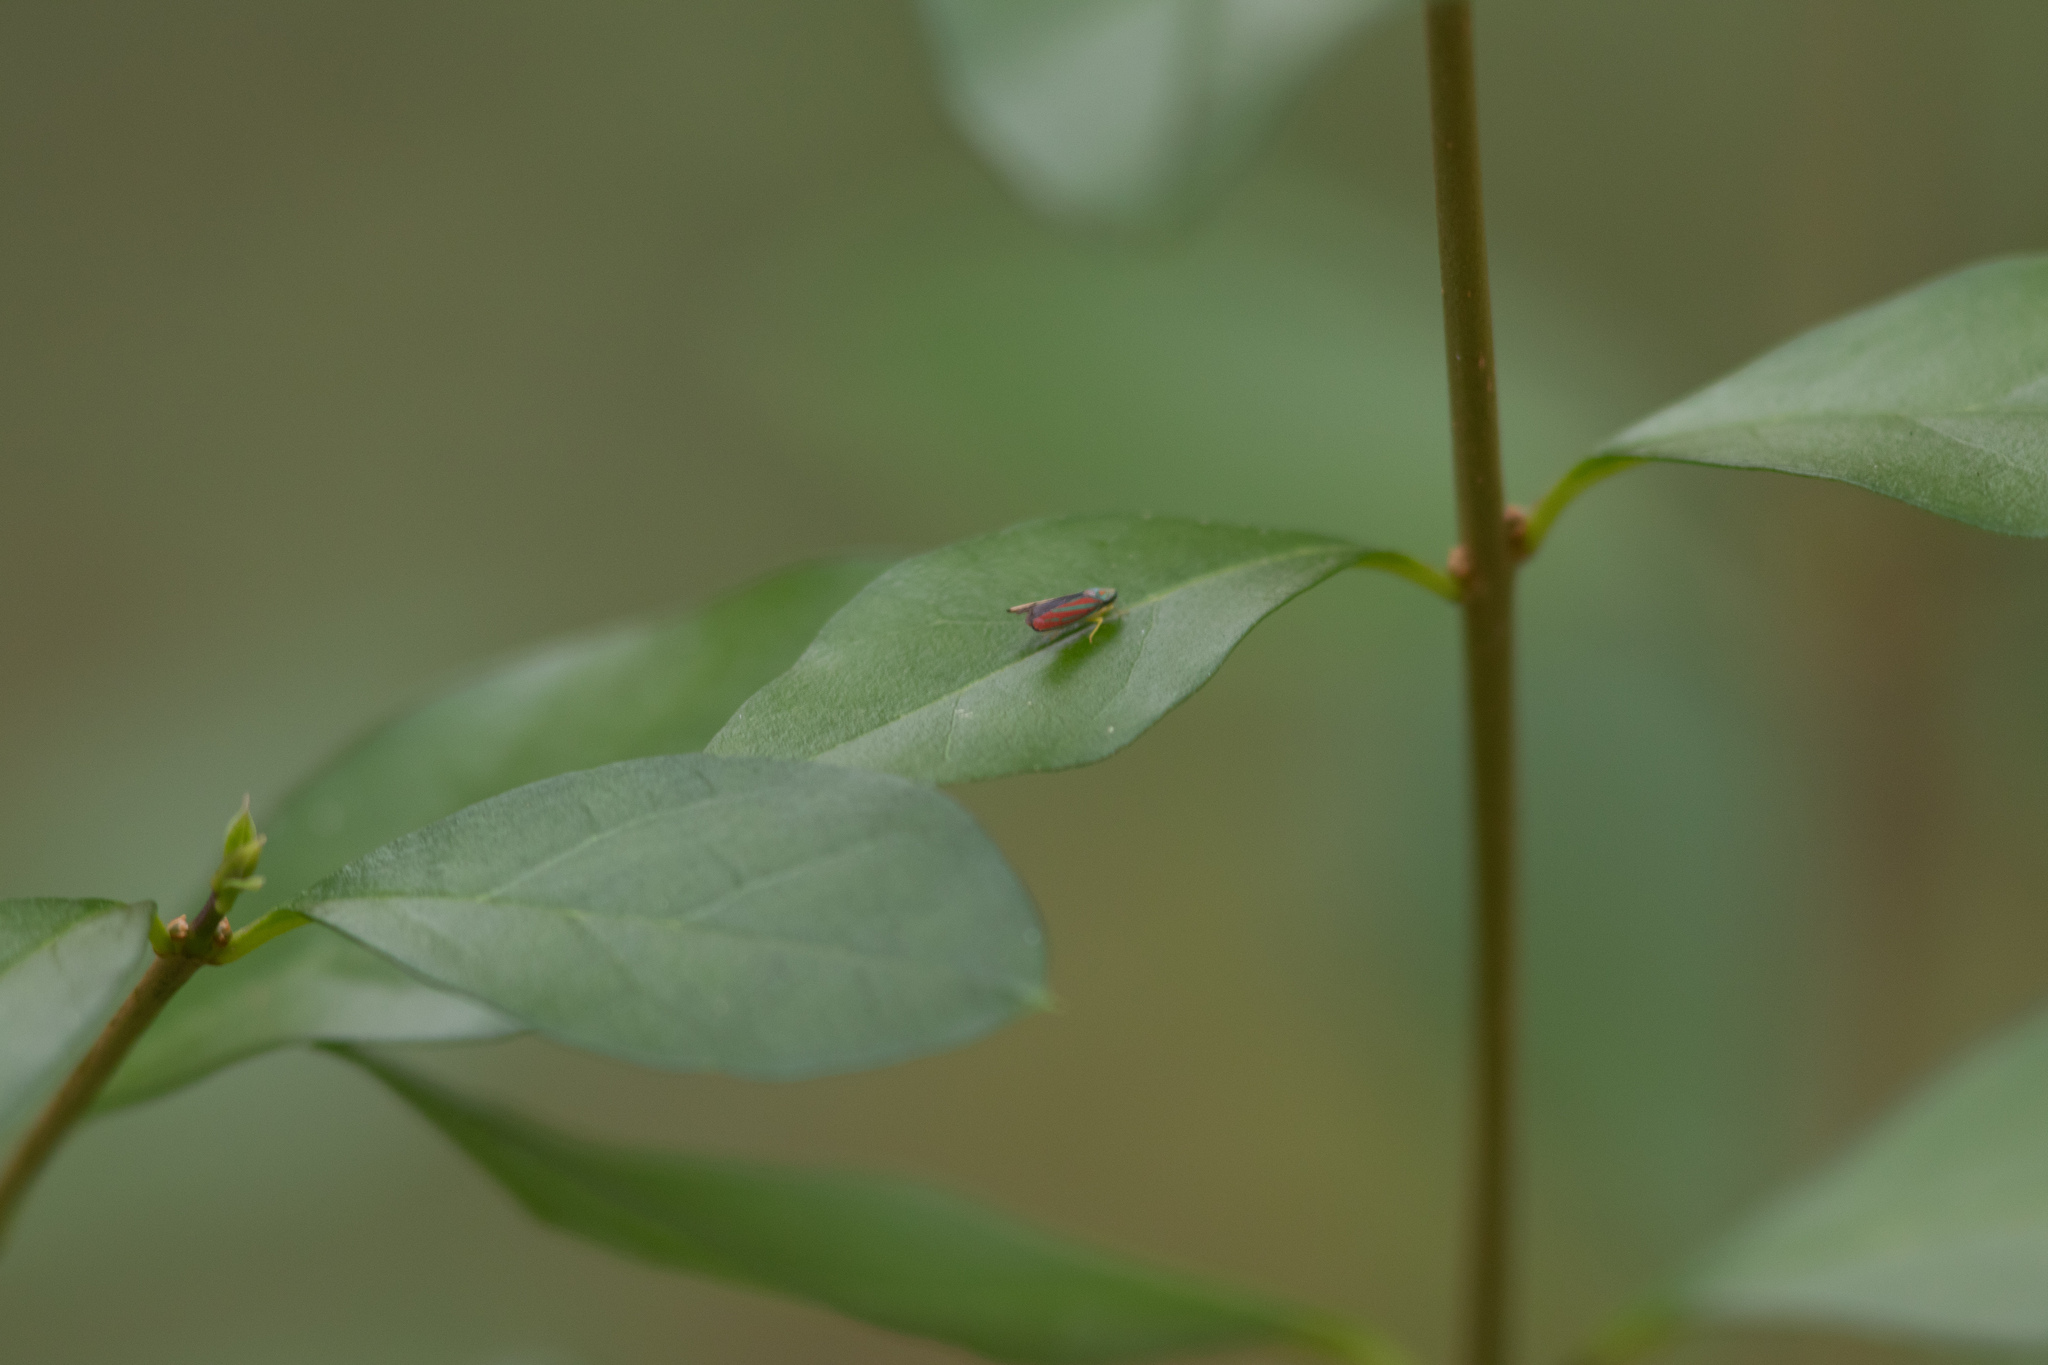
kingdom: Animalia
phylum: Arthropoda
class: Insecta
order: Hemiptera
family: Cicadellidae
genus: Graphocephala
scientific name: Graphocephala coccinea
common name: Candy-striped leafhopper
